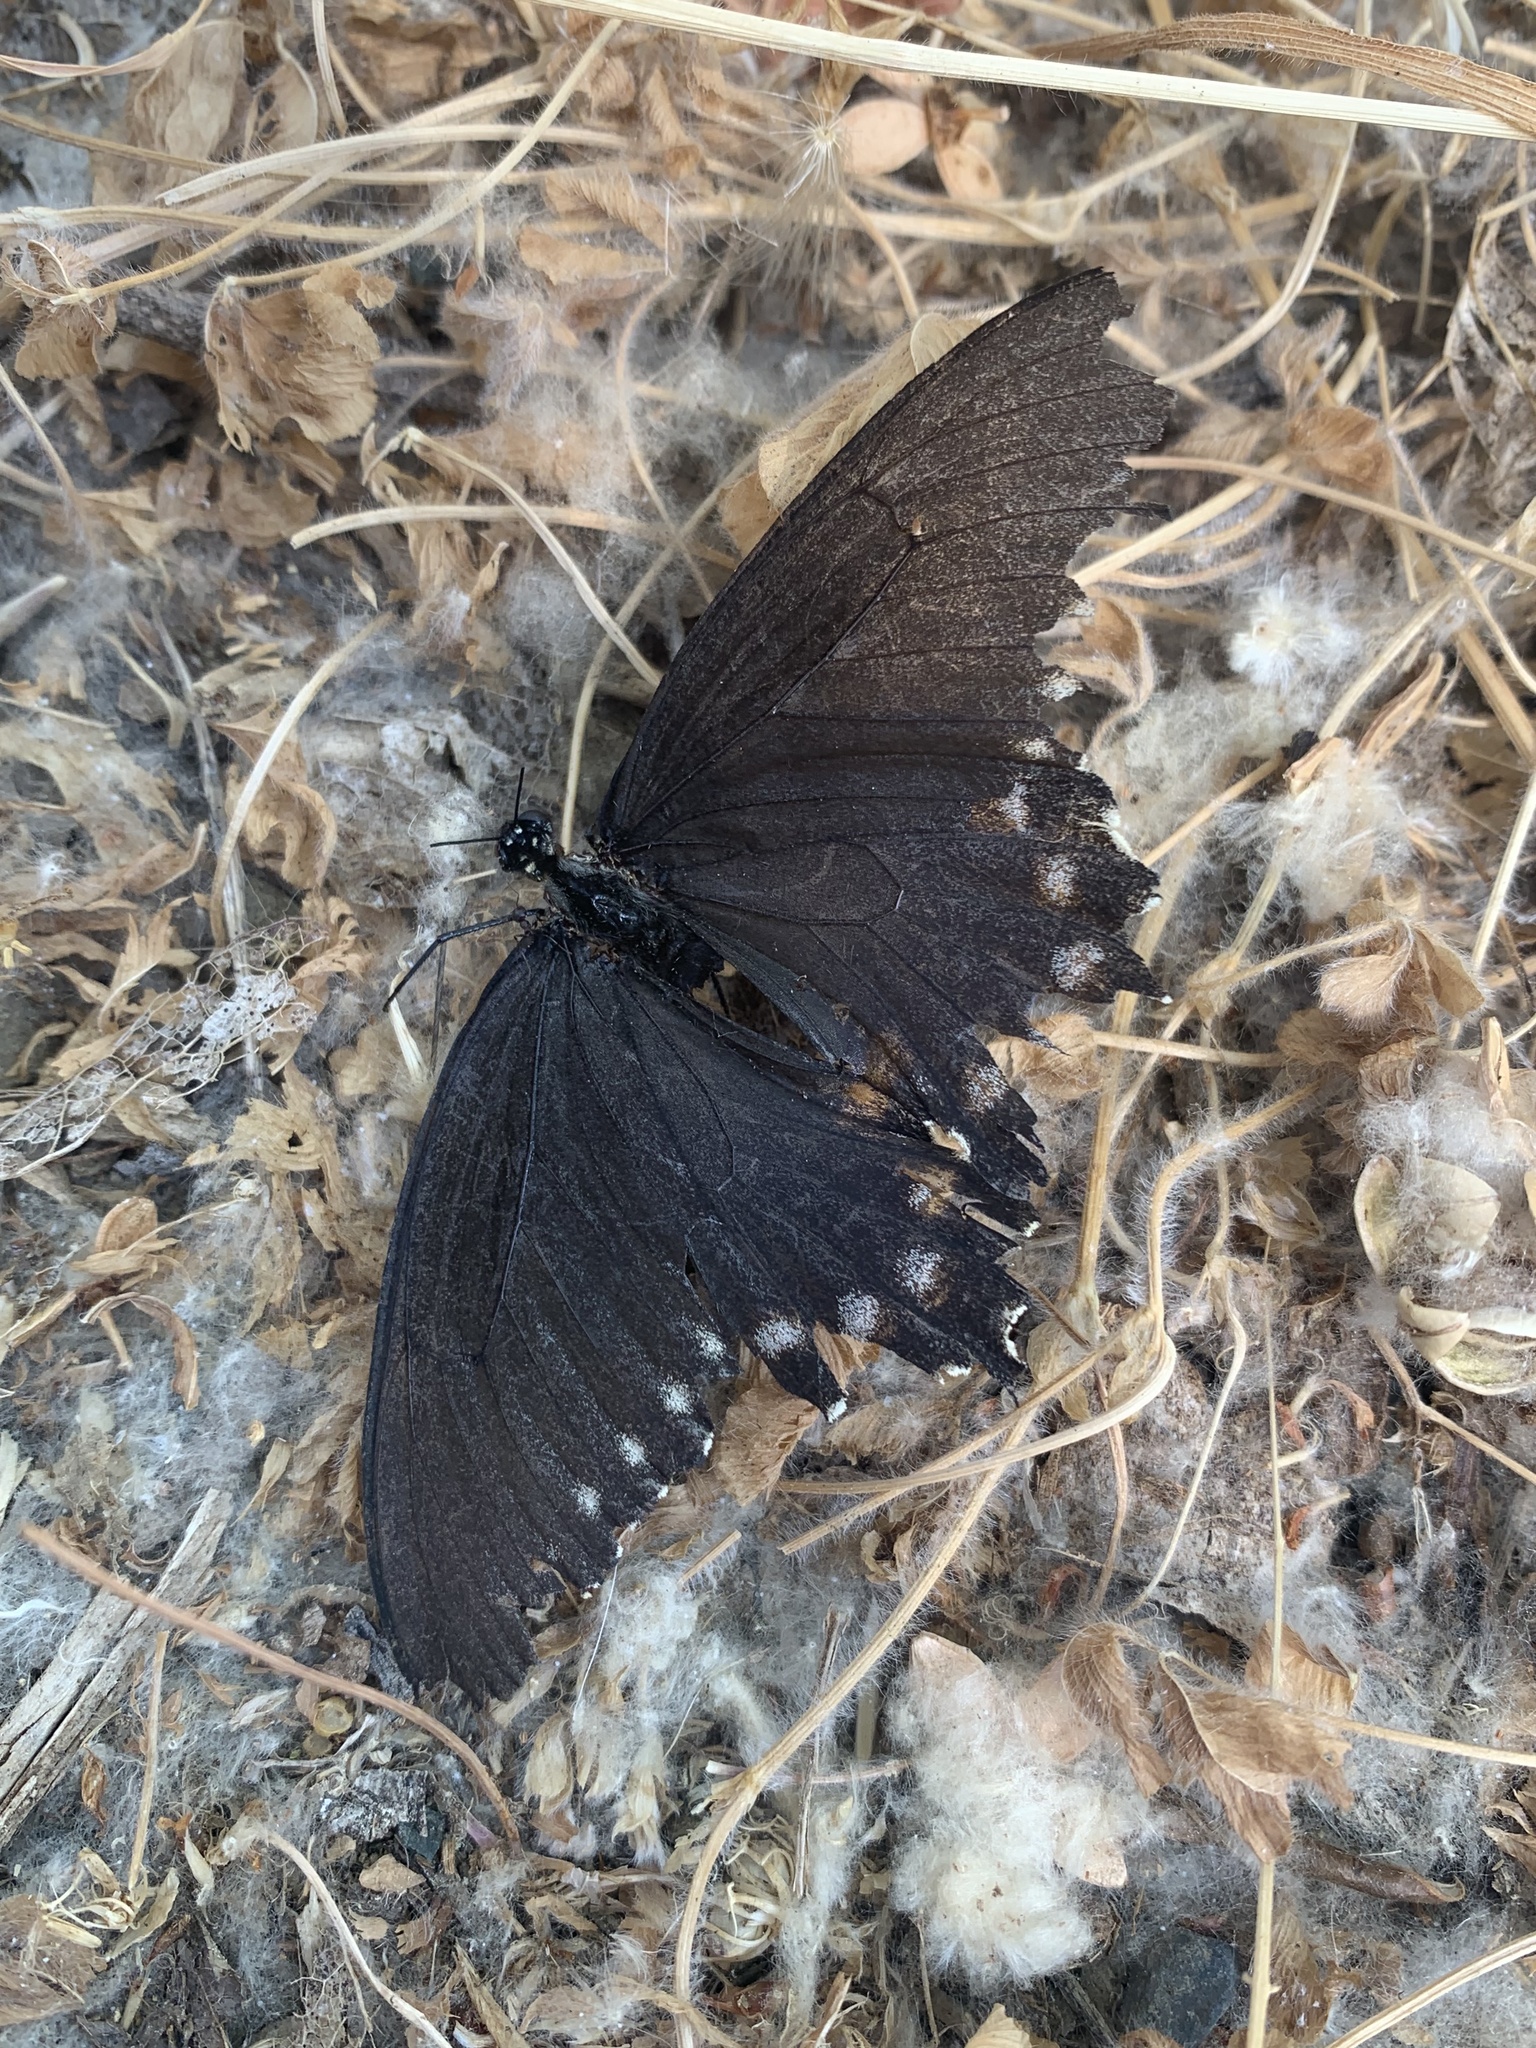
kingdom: Animalia
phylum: Arthropoda
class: Insecta
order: Lepidoptera
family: Papilionidae
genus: Battus
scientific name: Battus philenor
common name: Pipevine swallowtail
